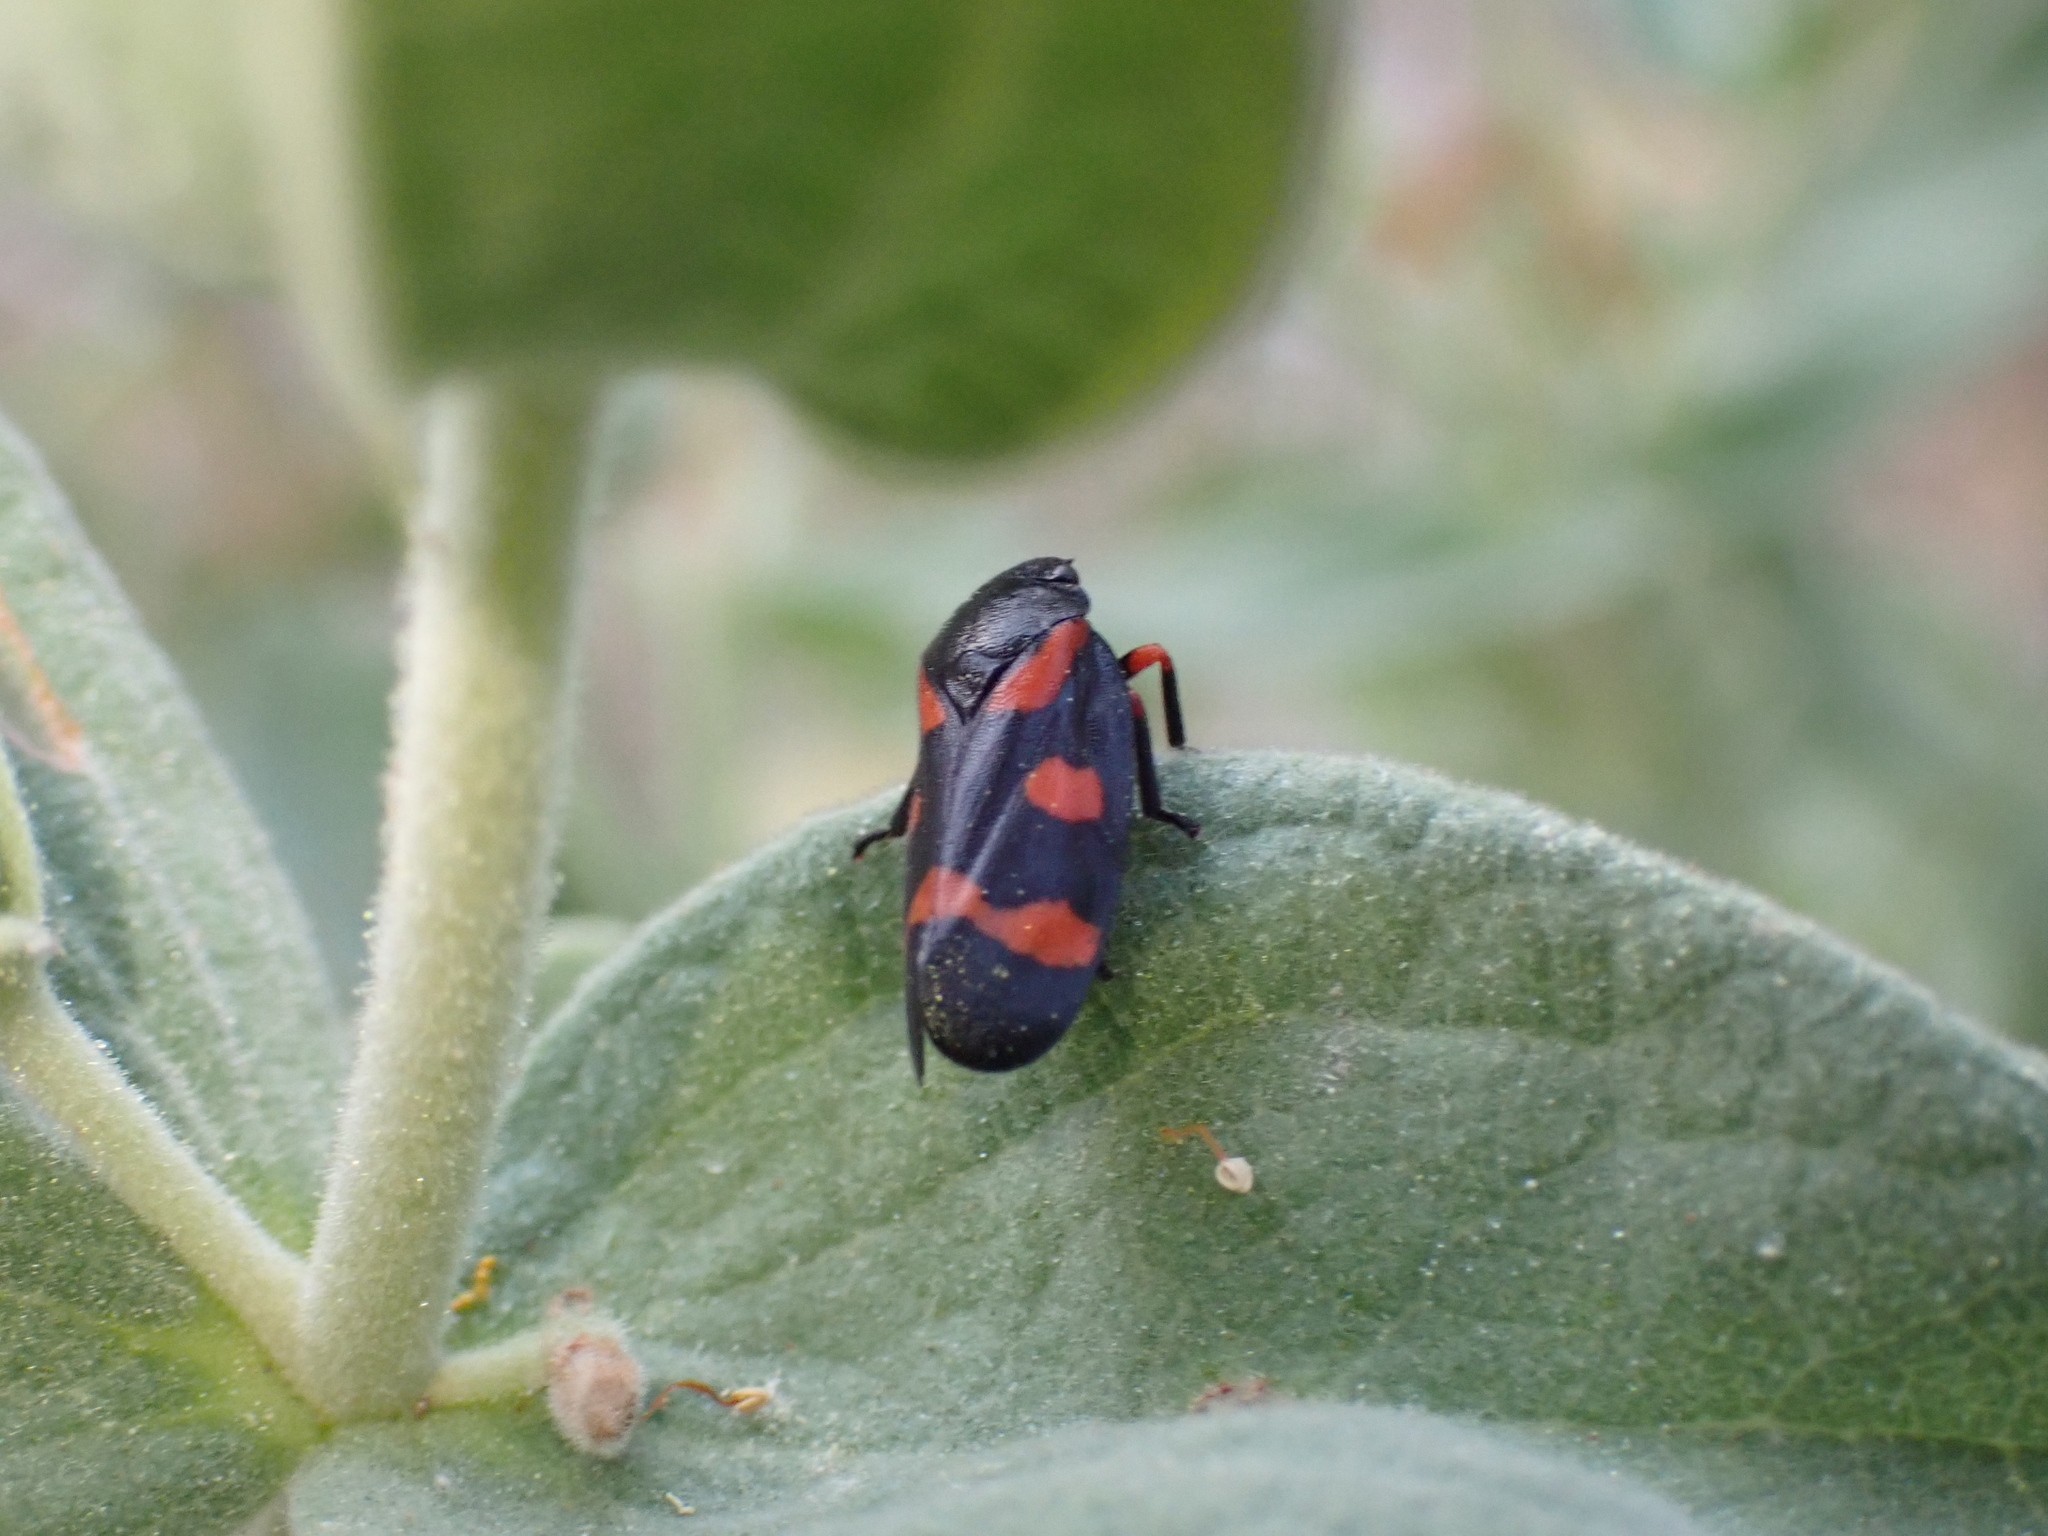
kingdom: Animalia
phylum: Arthropoda
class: Insecta
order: Hemiptera
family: Cercopidae
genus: Cercopis
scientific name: Cercopis intermedia
